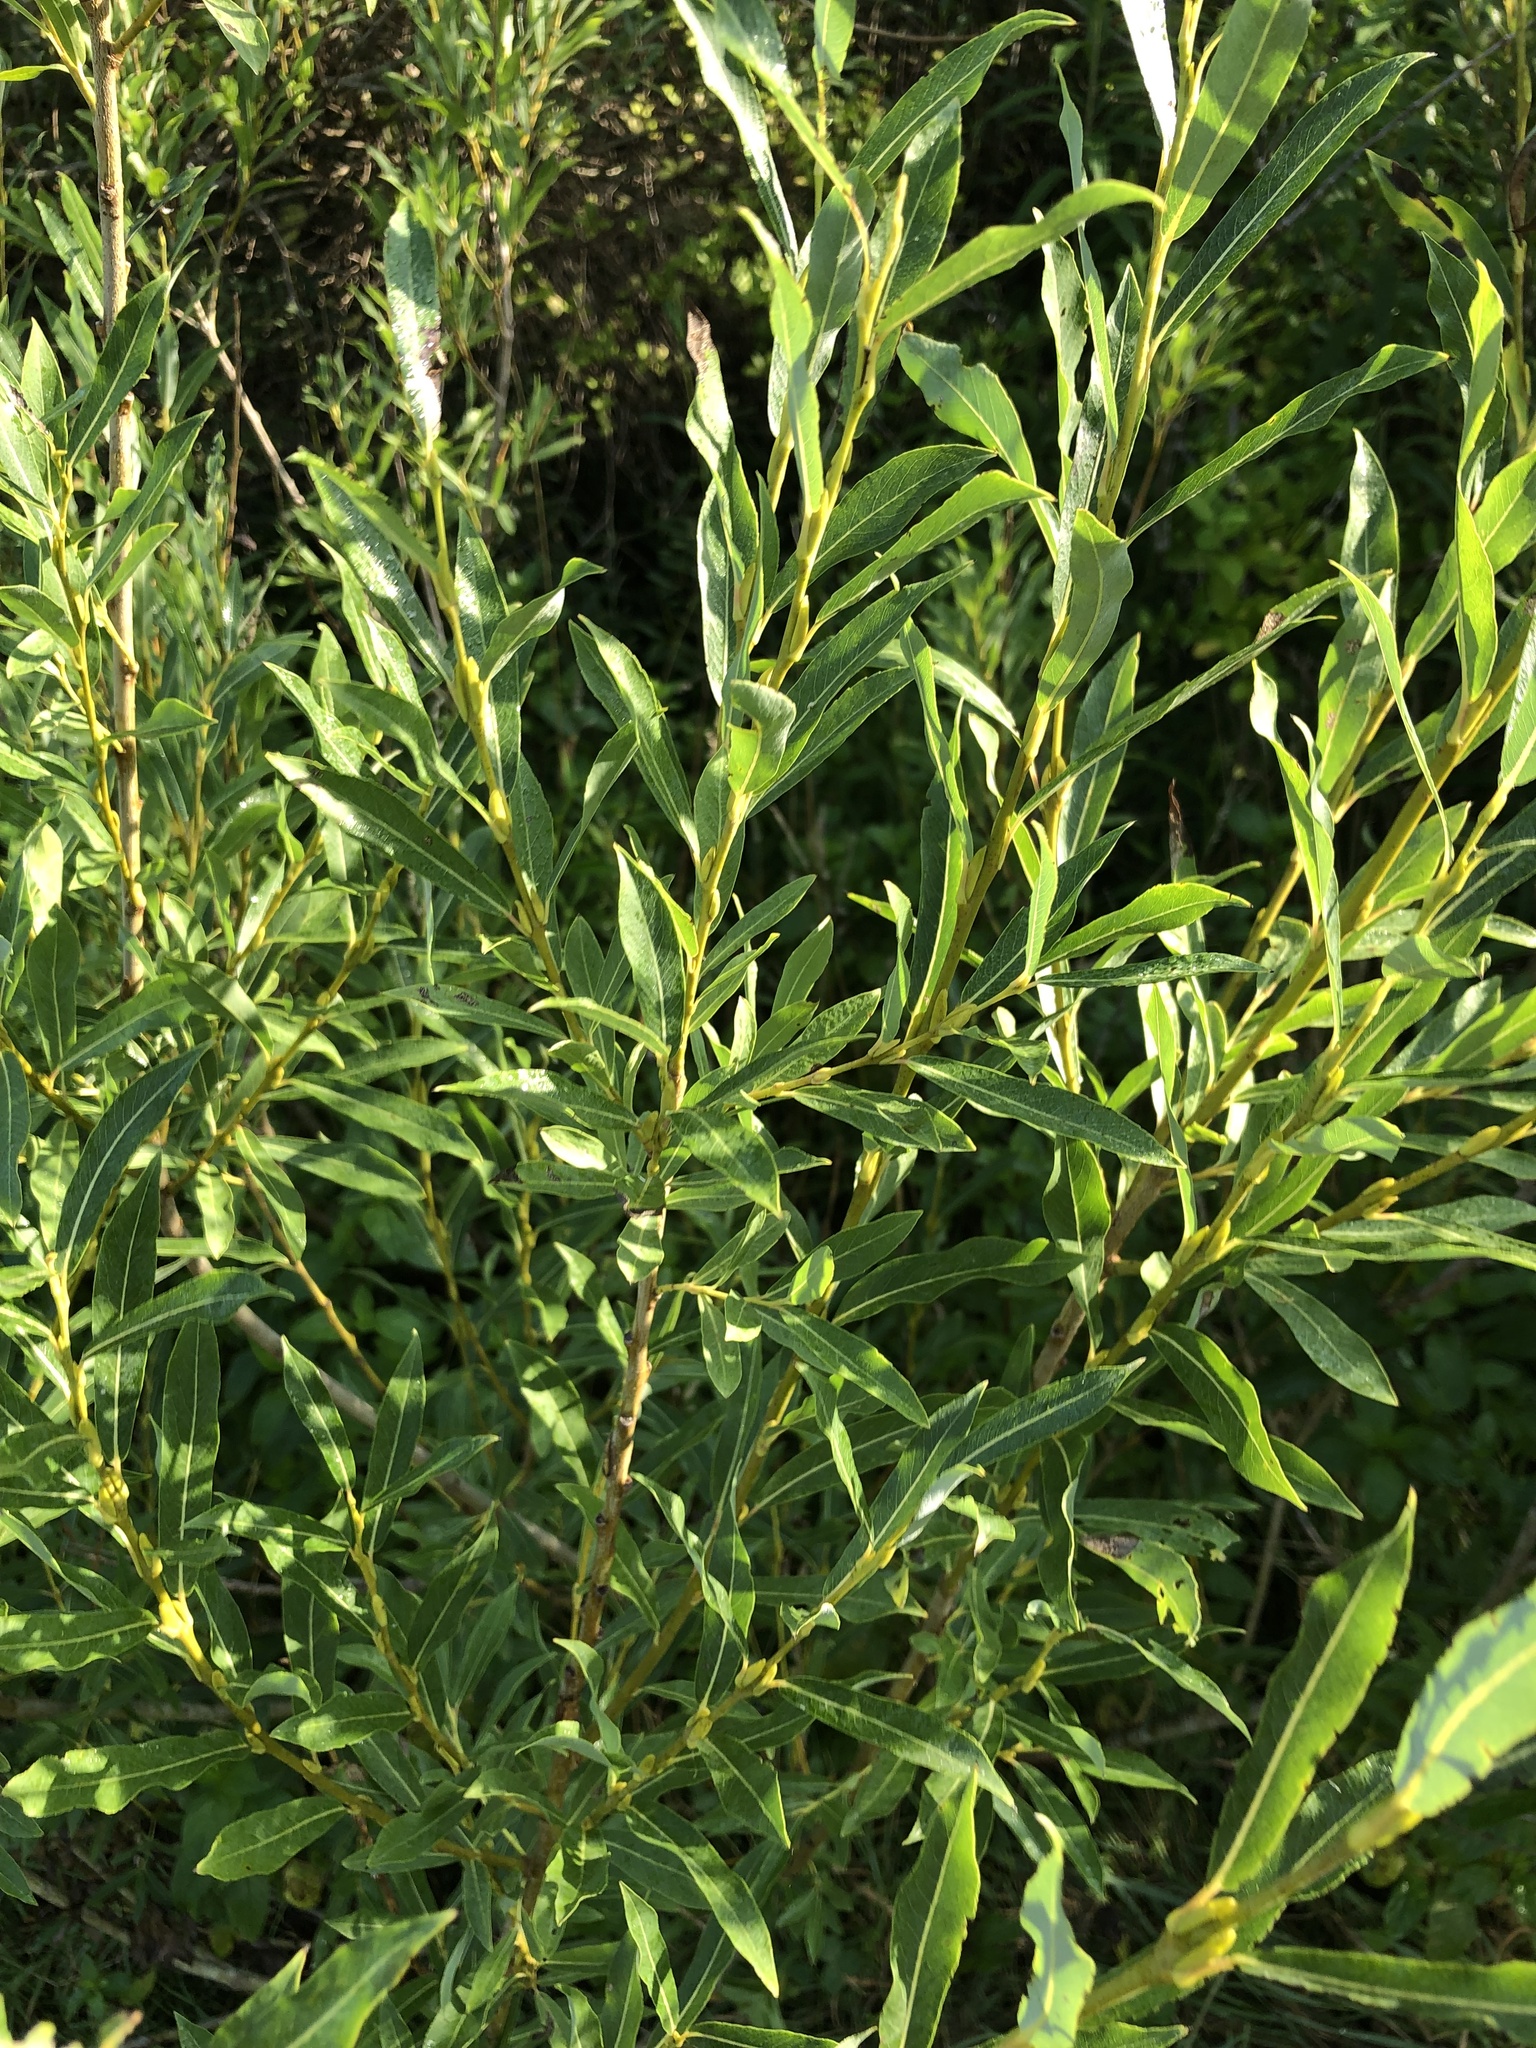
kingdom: Plantae
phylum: Tracheophyta
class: Magnoliopsida
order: Malpighiales
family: Salicaceae
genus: Salix
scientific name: Salix purpurea
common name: Purple willow
